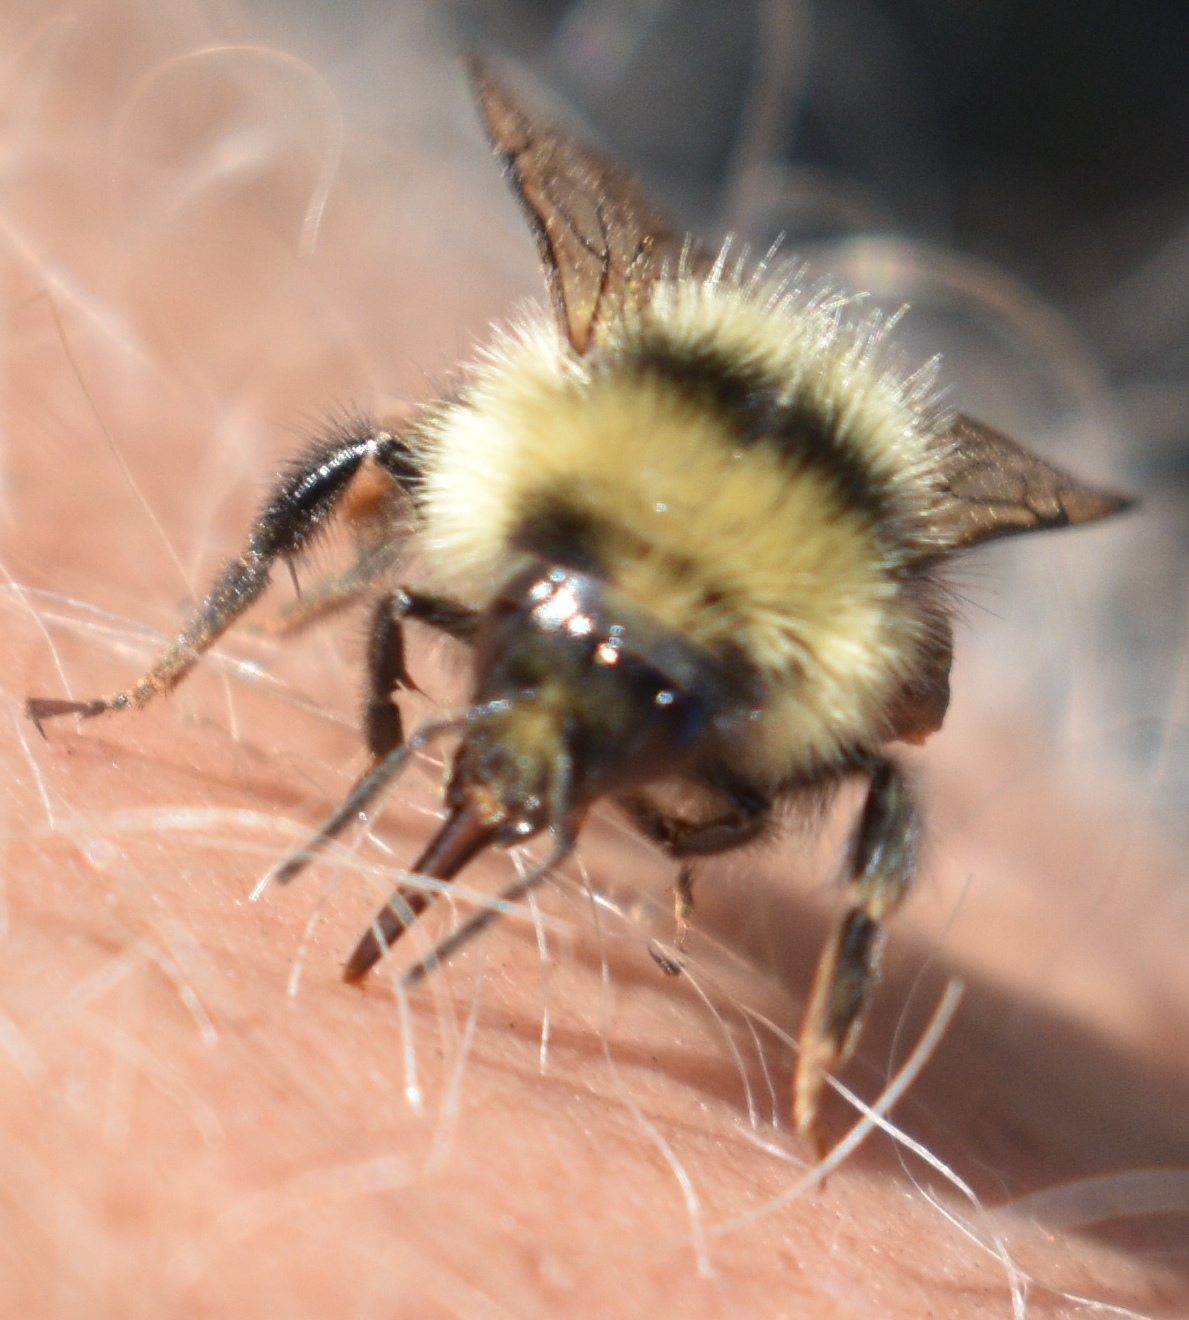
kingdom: Animalia
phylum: Arthropoda
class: Insecta
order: Hymenoptera
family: Apidae
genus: Bombus
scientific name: Bombus sylvicola
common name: Forest bumble bee
